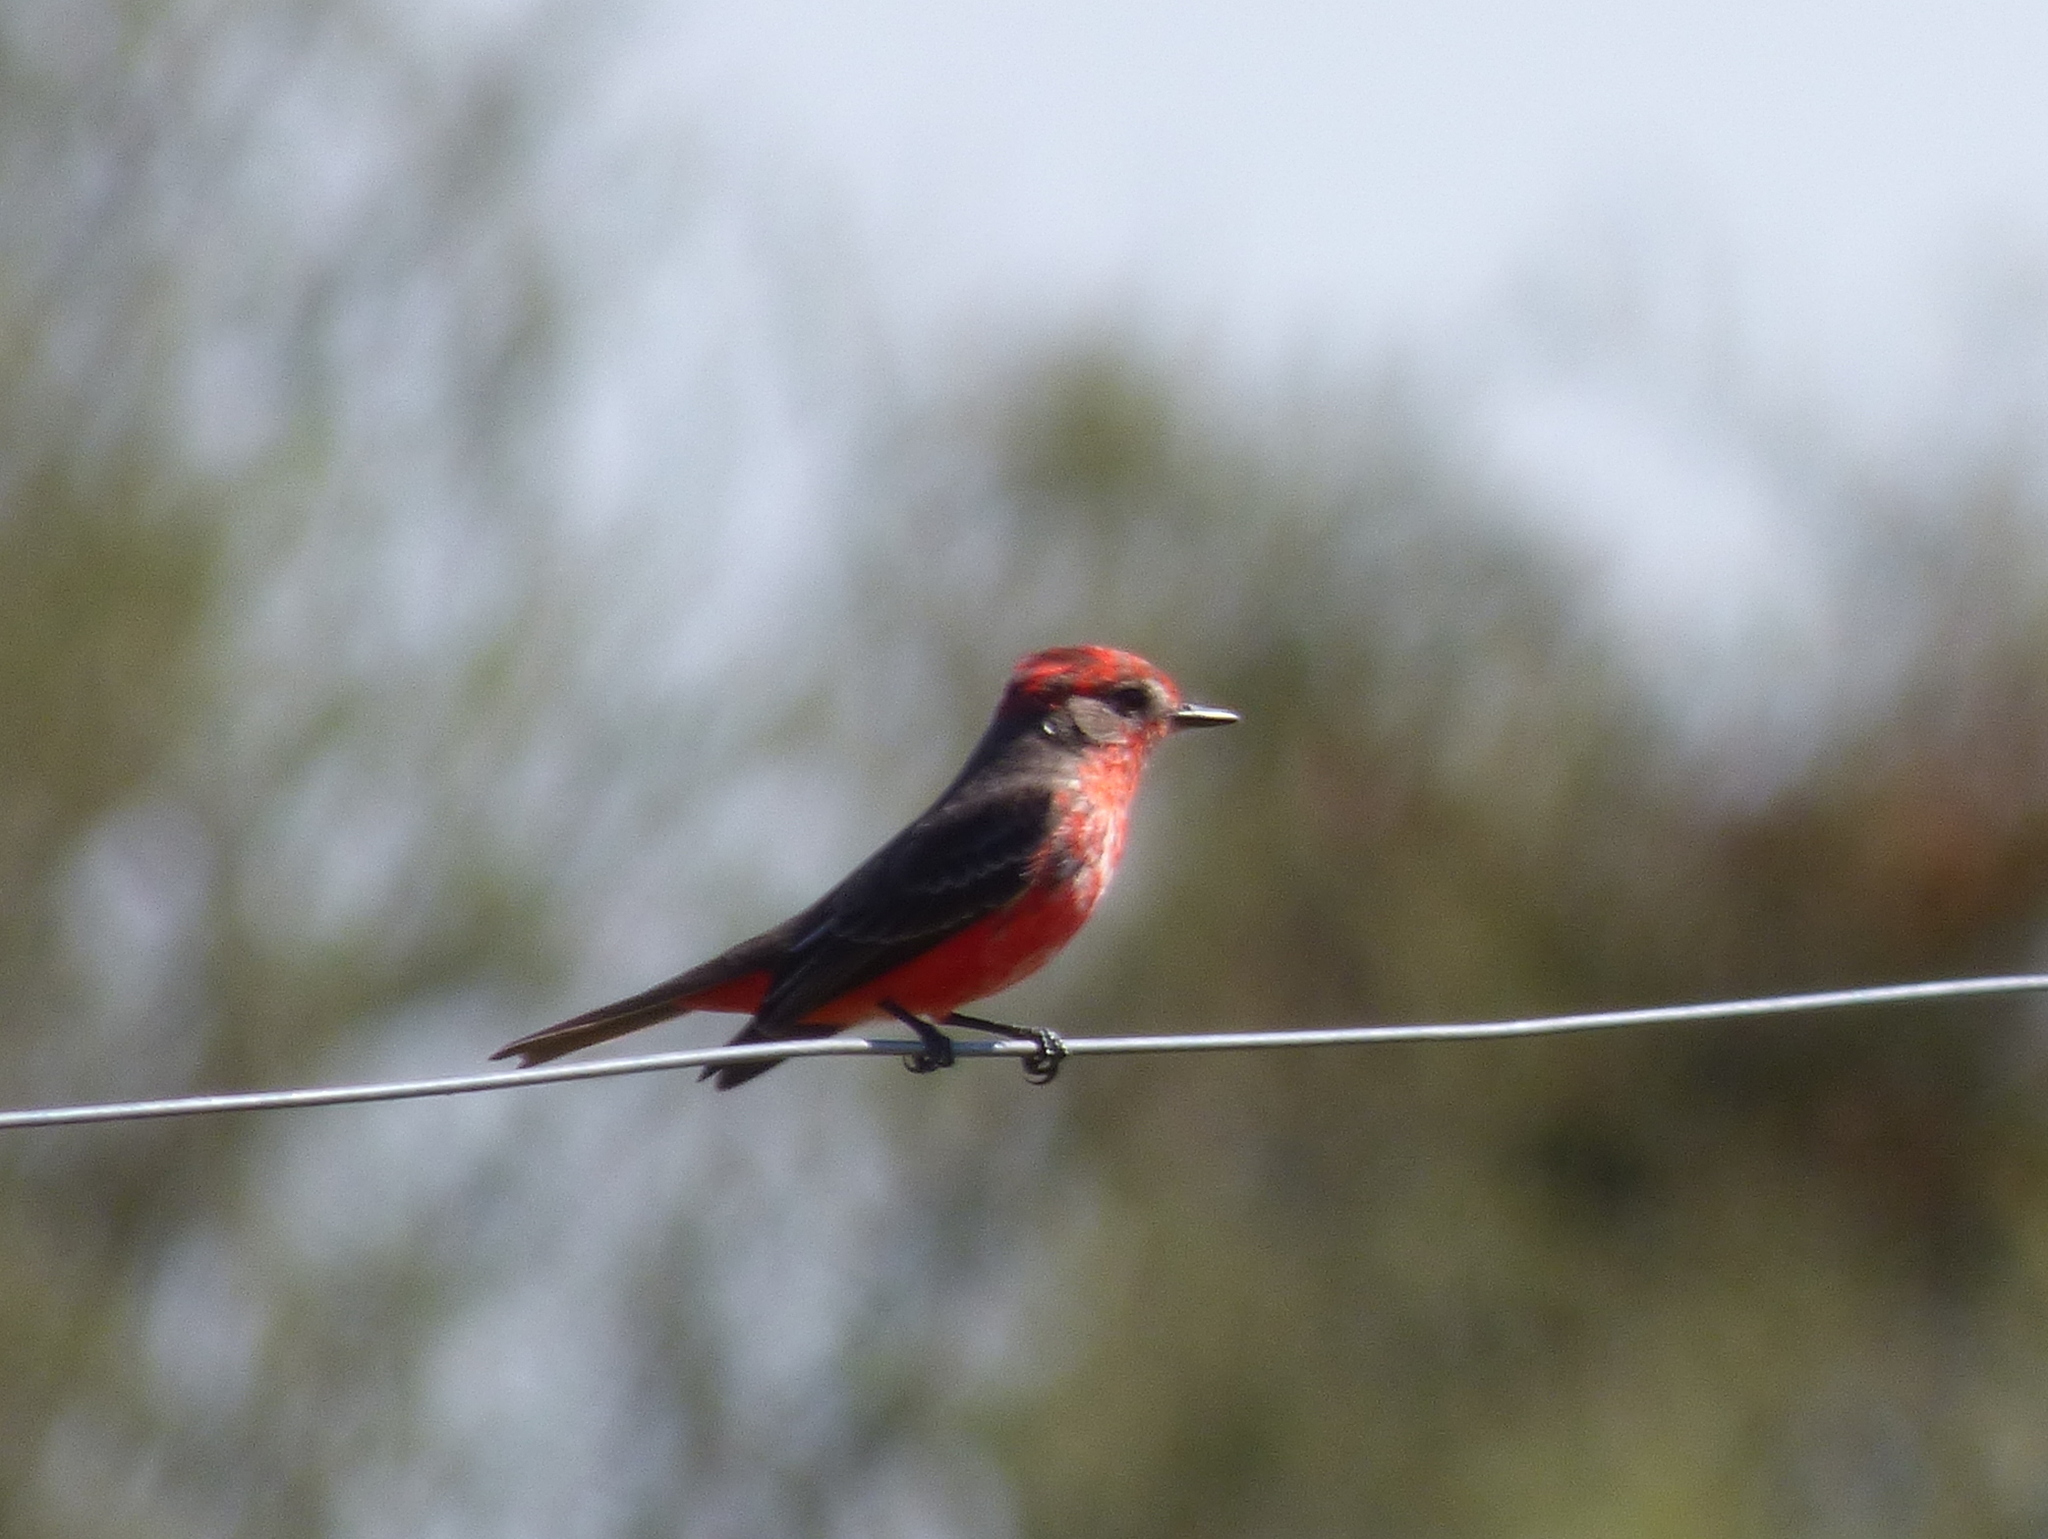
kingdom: Animalia
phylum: Chordata
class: Aves
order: Passeriformes
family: Tyrannidae
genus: Pyrocephalus
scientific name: Pyrocephalus rubinus
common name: Vermilion flycatcher
